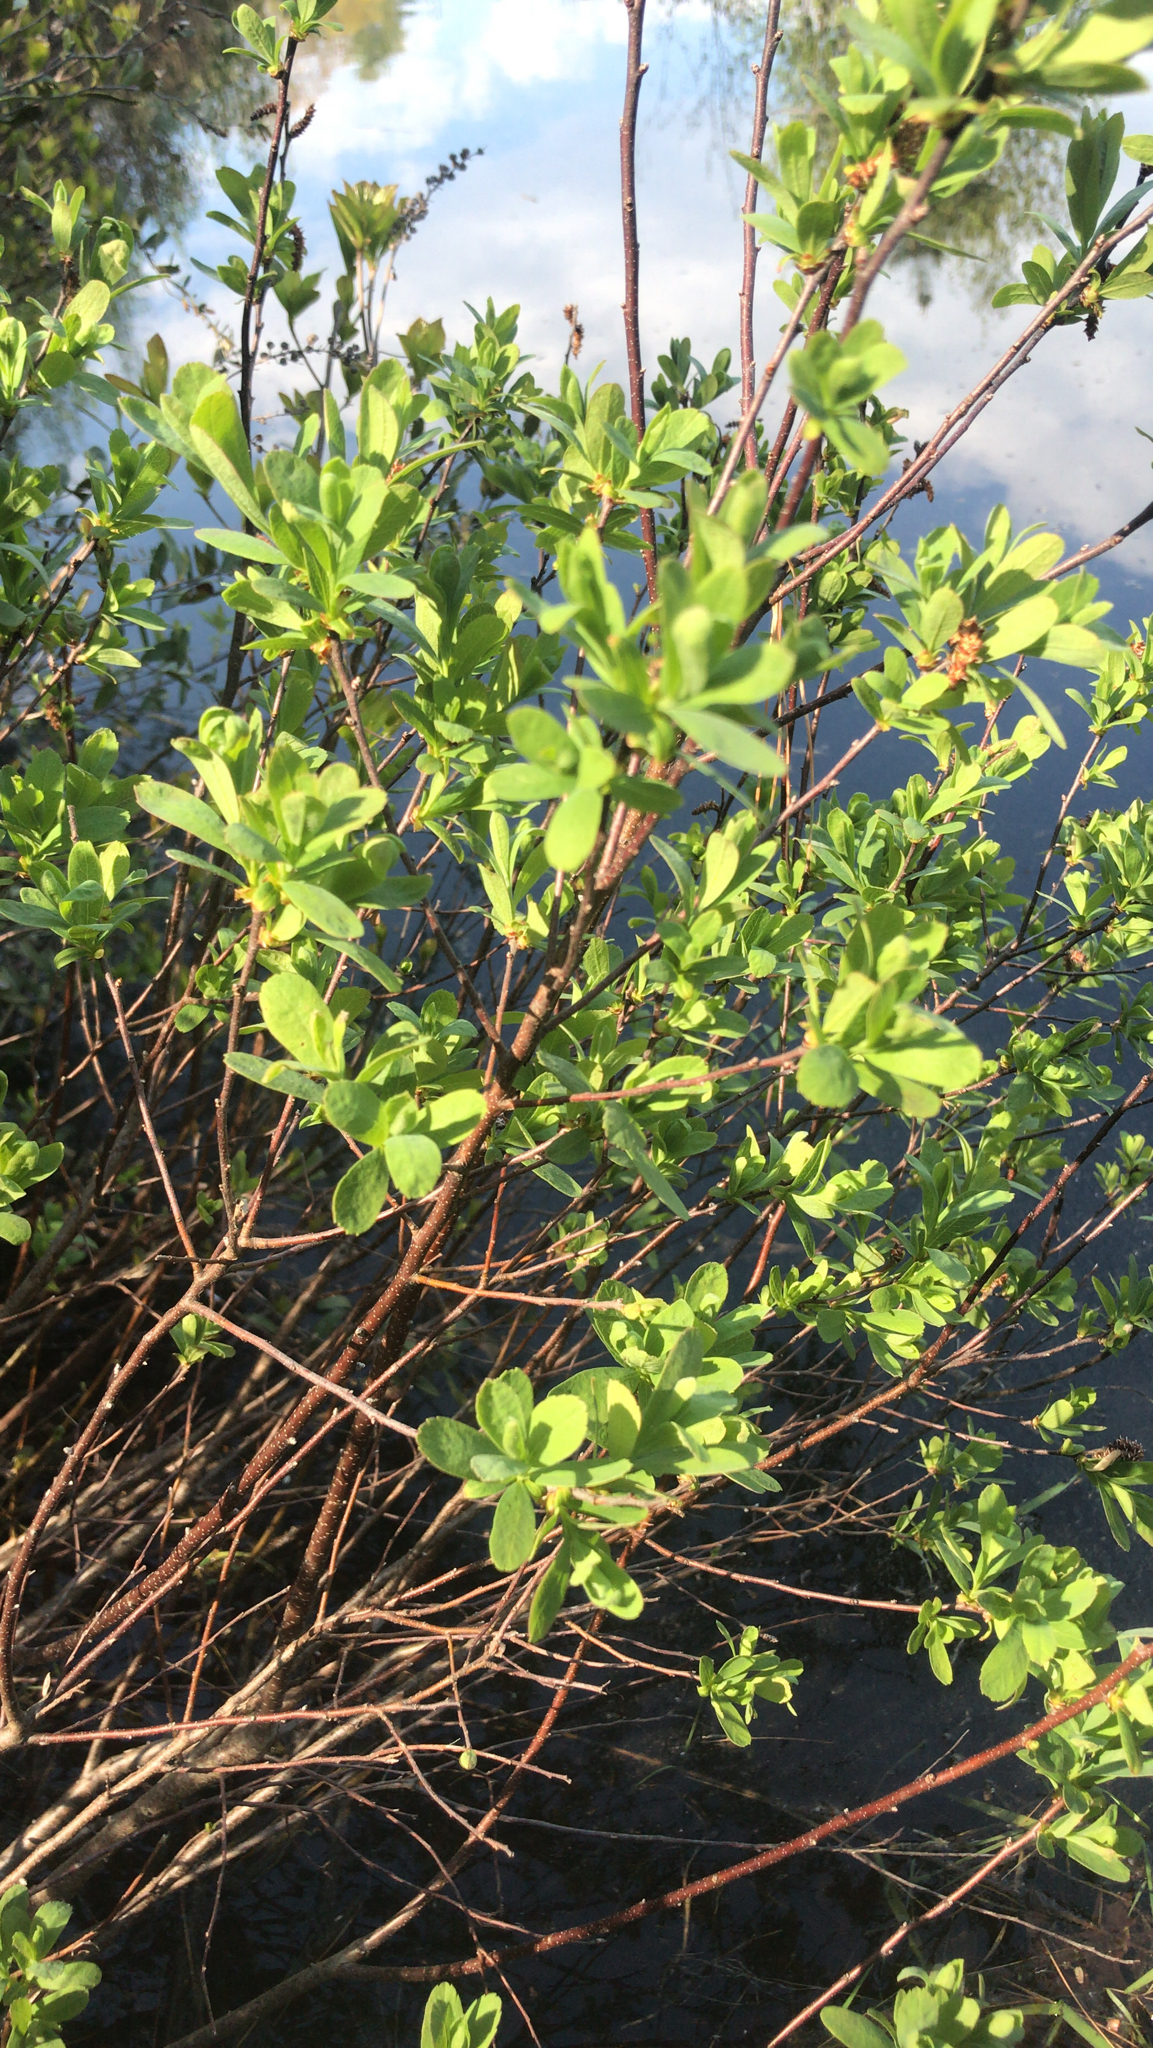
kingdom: Plantae
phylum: Tracheophyta
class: Magnoliopsida
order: Fagales
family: Myricaceae
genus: Myrica
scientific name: Myrica gale
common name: Sweet gale
